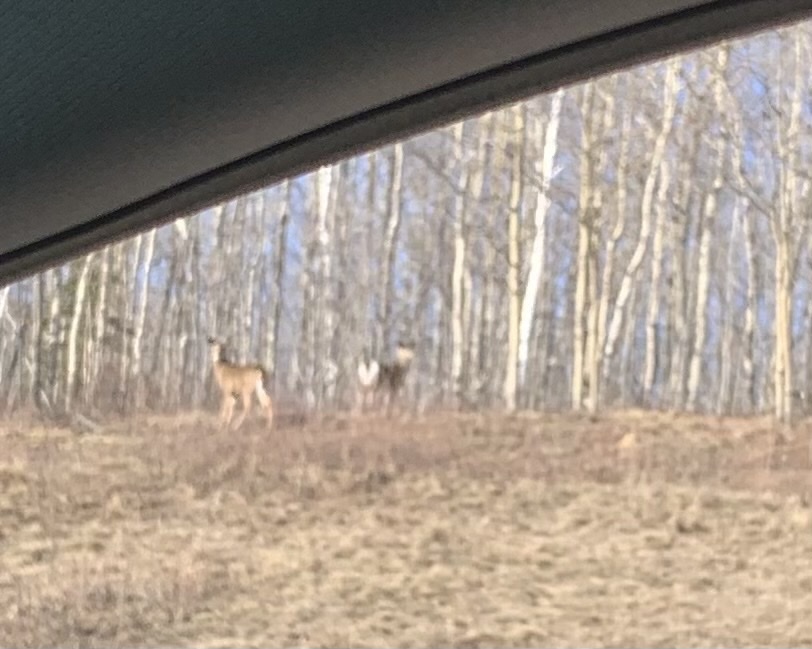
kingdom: Animalia
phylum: Chordata
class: Mammalia
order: Artiodactyla
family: Cervidae
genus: Odocoileus
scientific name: Odocoileus virginianus
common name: White-tailed deer
